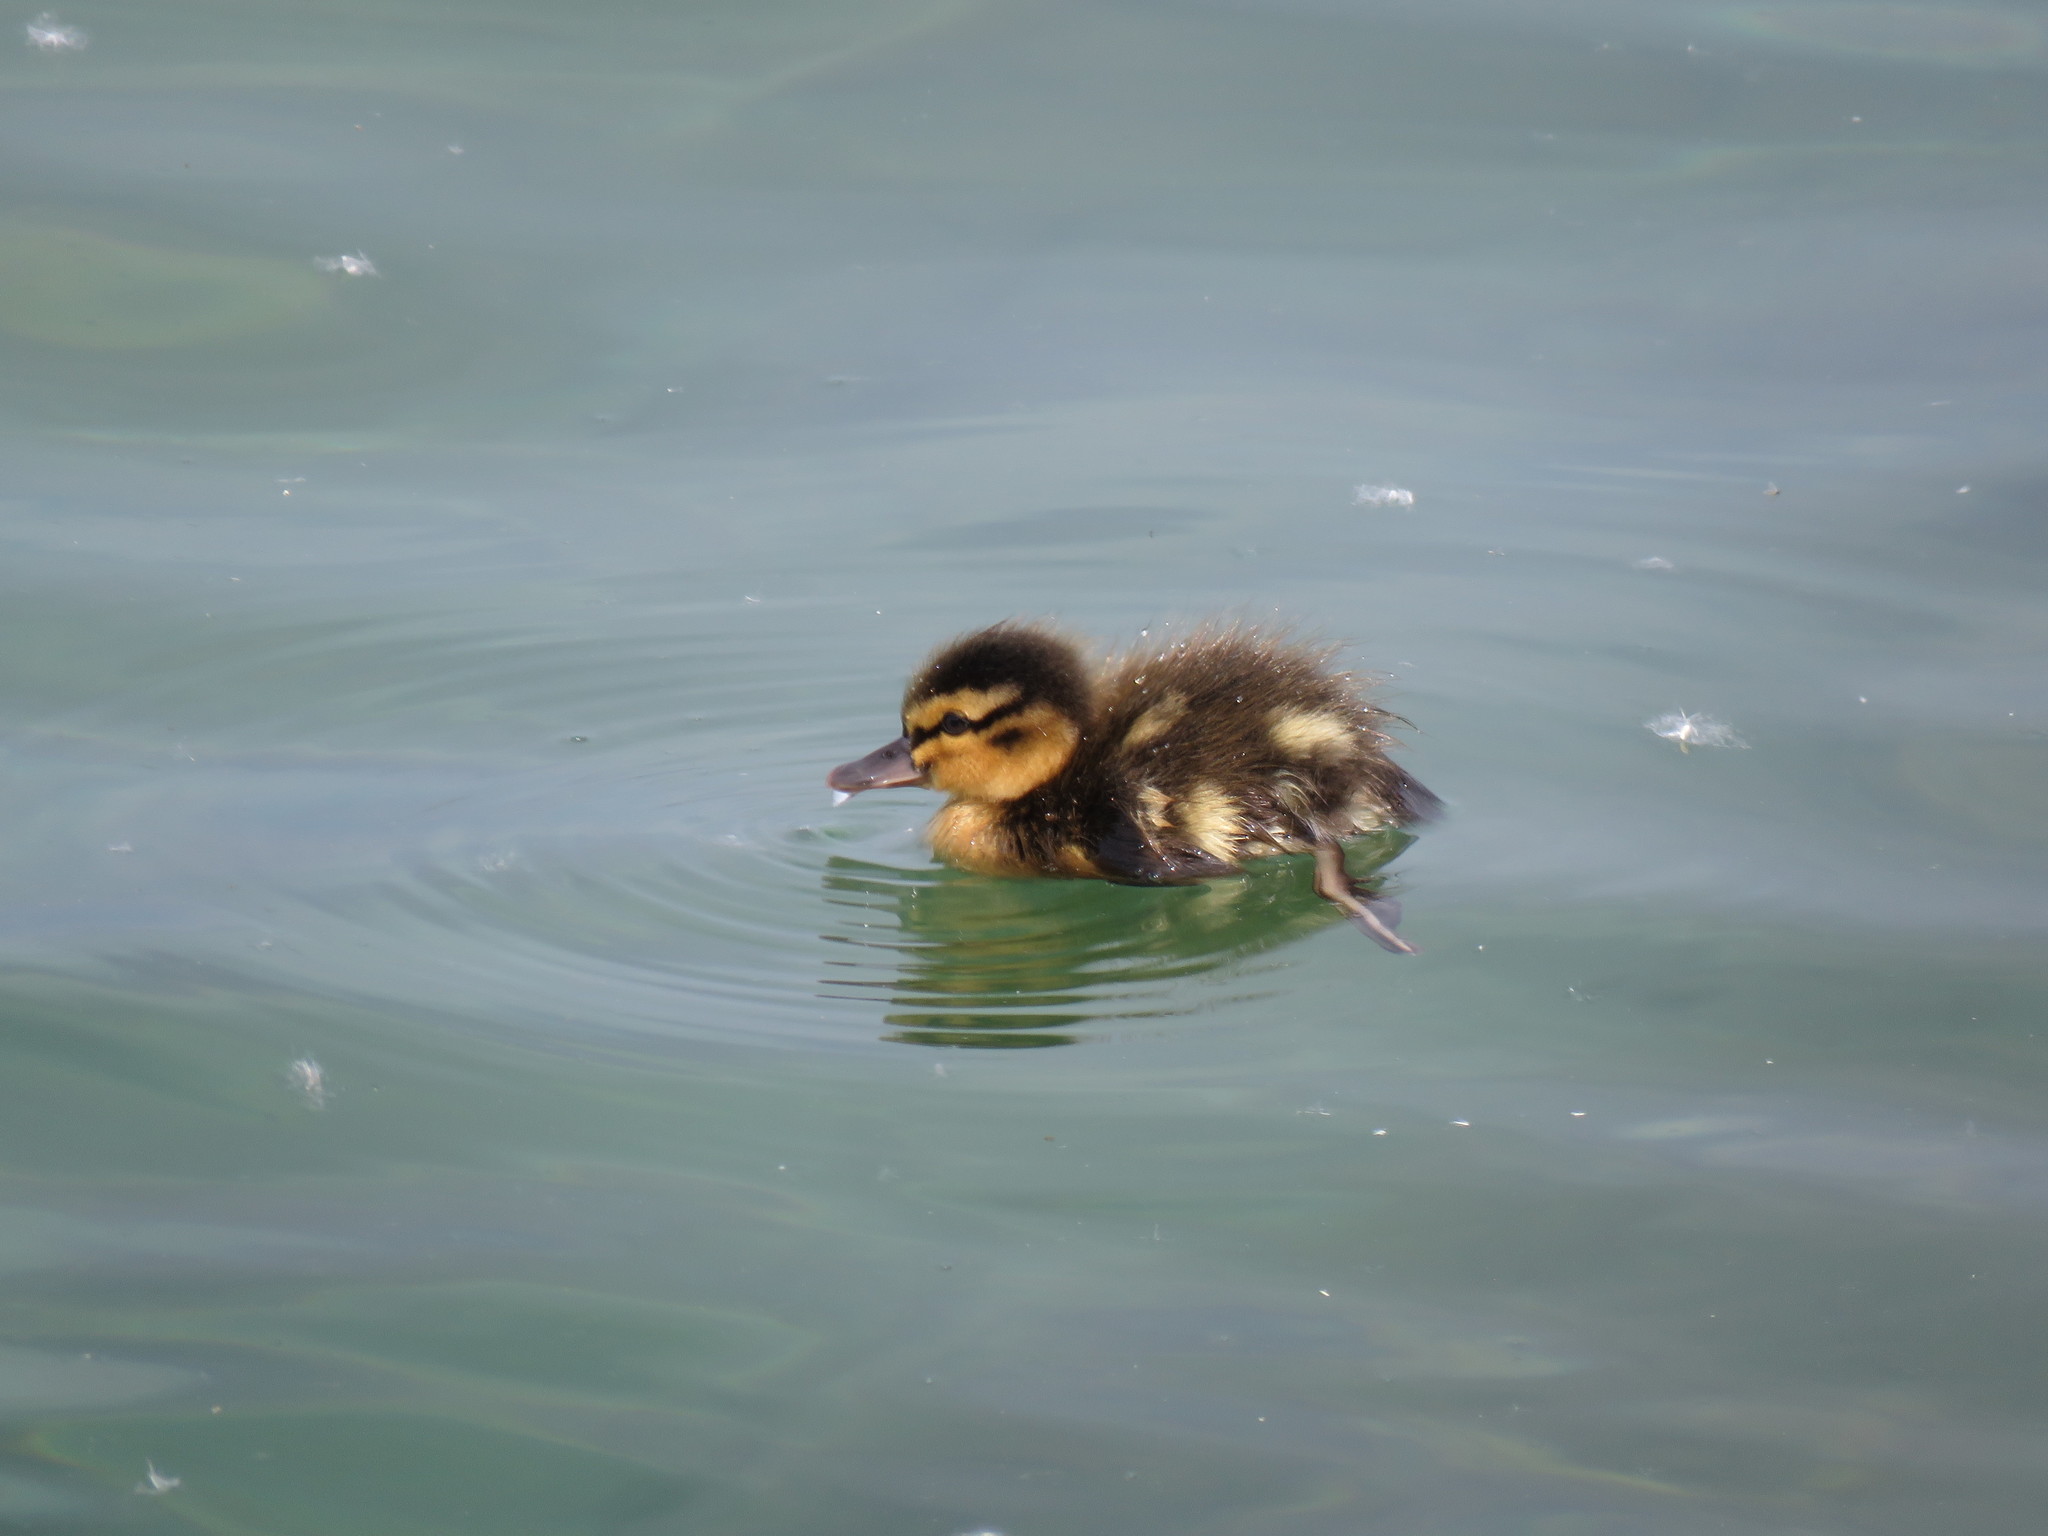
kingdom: Animalia
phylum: Chordata
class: Aves
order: Anseriformes
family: Anatidae
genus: Anas
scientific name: Anas platyrhynchos
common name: Mallard
